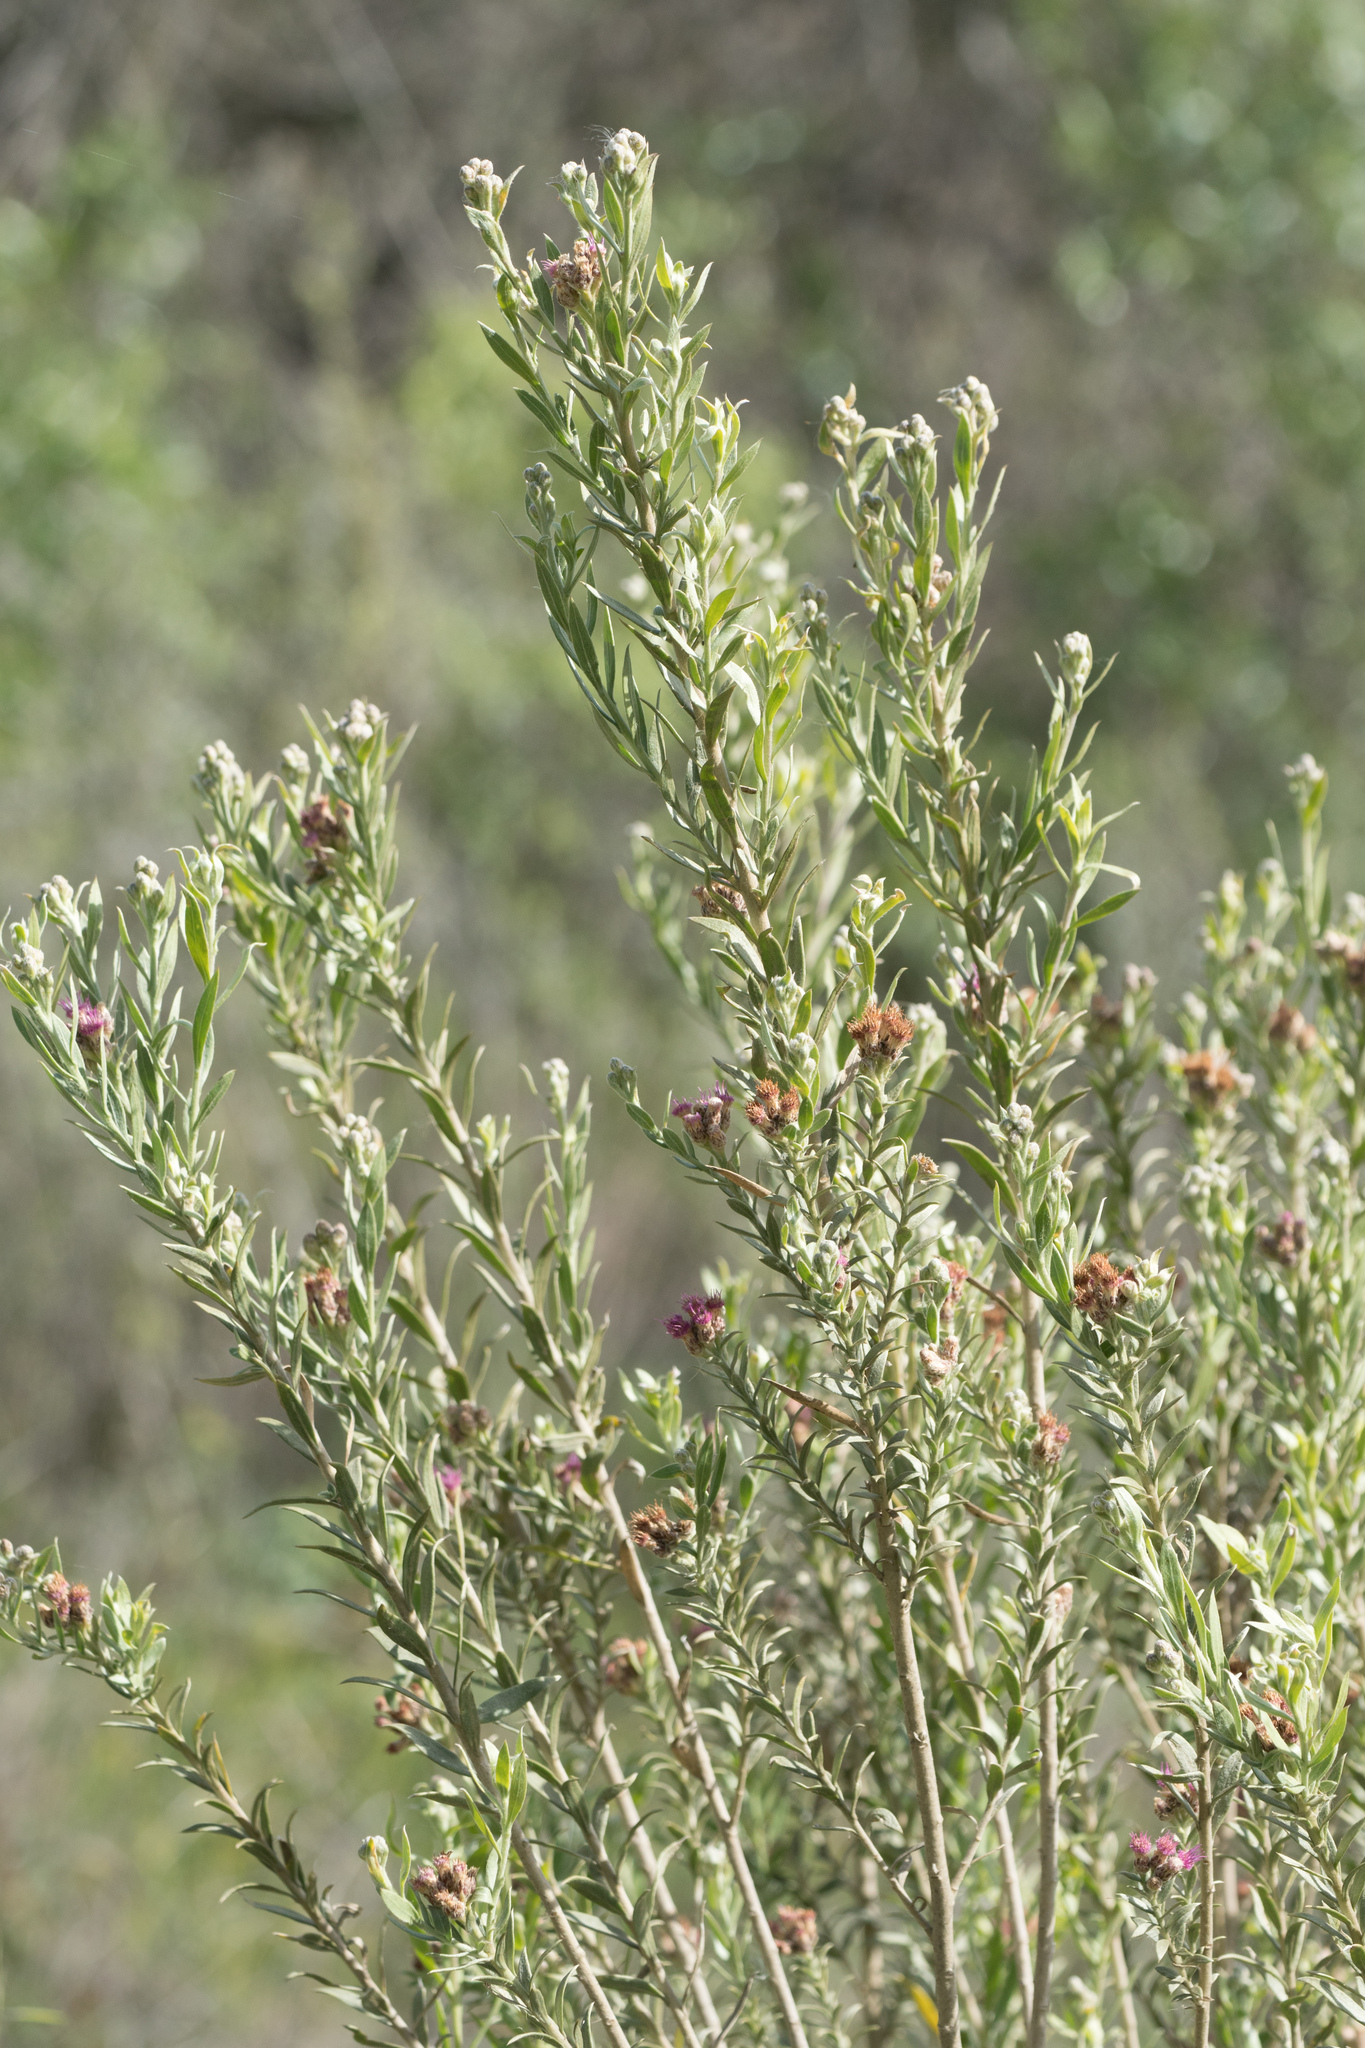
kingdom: Plantae
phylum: Tracheophyta
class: Magnoliopsida
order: Asterales
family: Asteraceae
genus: Pluchea
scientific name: Pluchea sericea
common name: Arrow-weed
